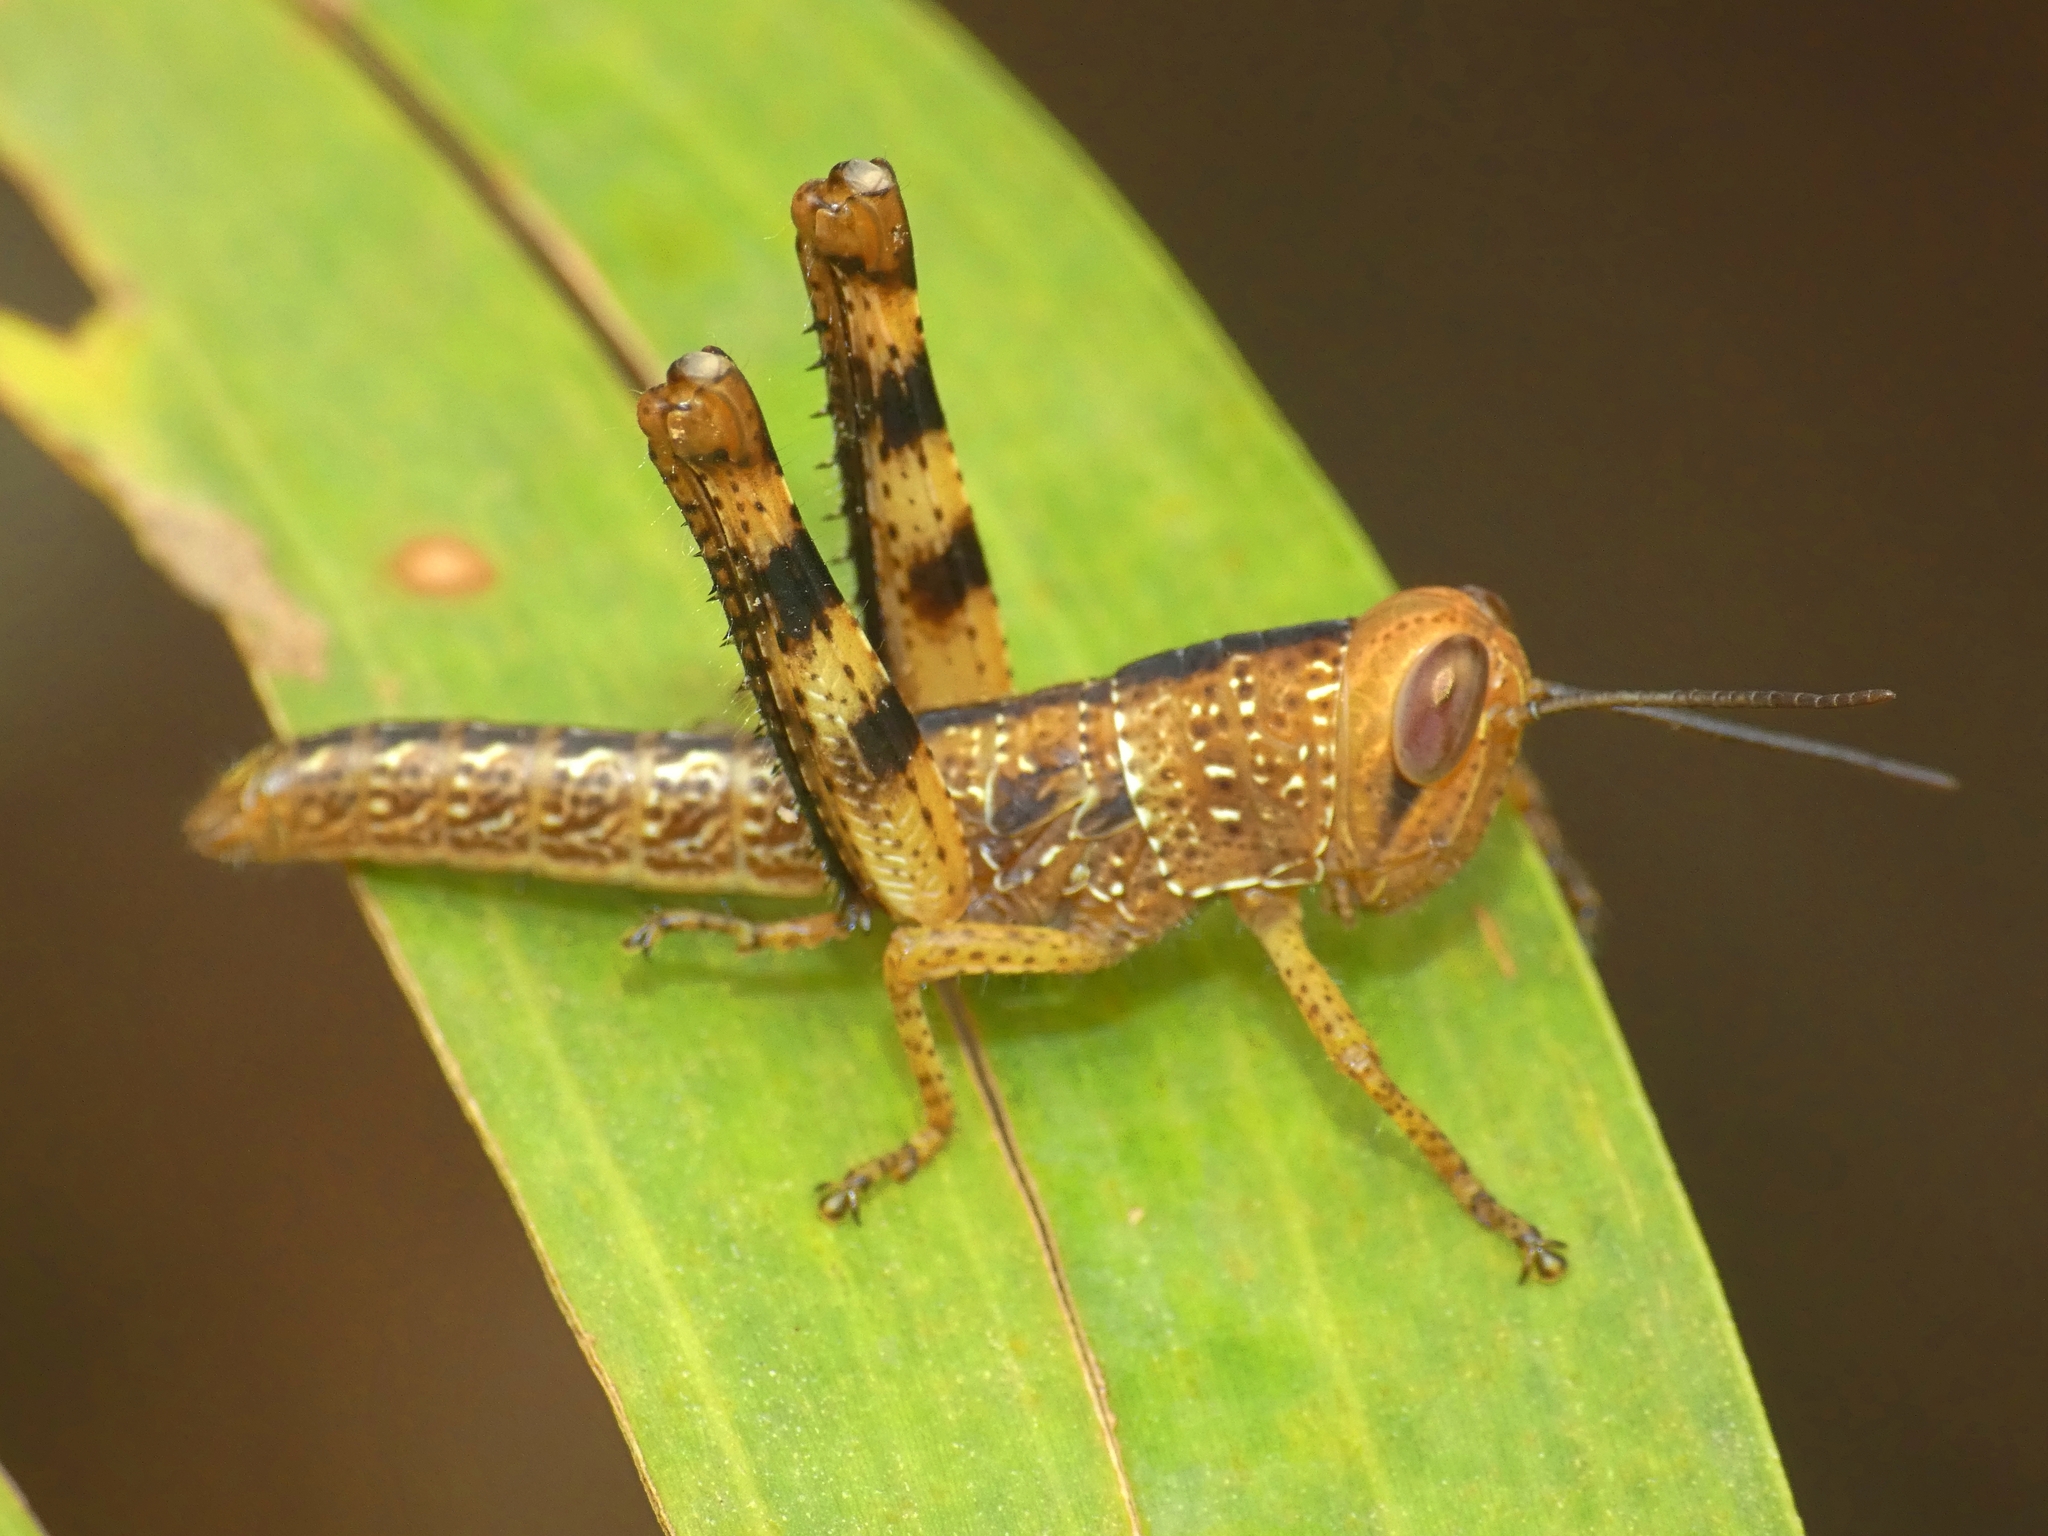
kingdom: Animalia
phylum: Arthropoda
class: Insecta
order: Orthoptera
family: Acrididae
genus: Valanga
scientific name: Valanga irregularis
